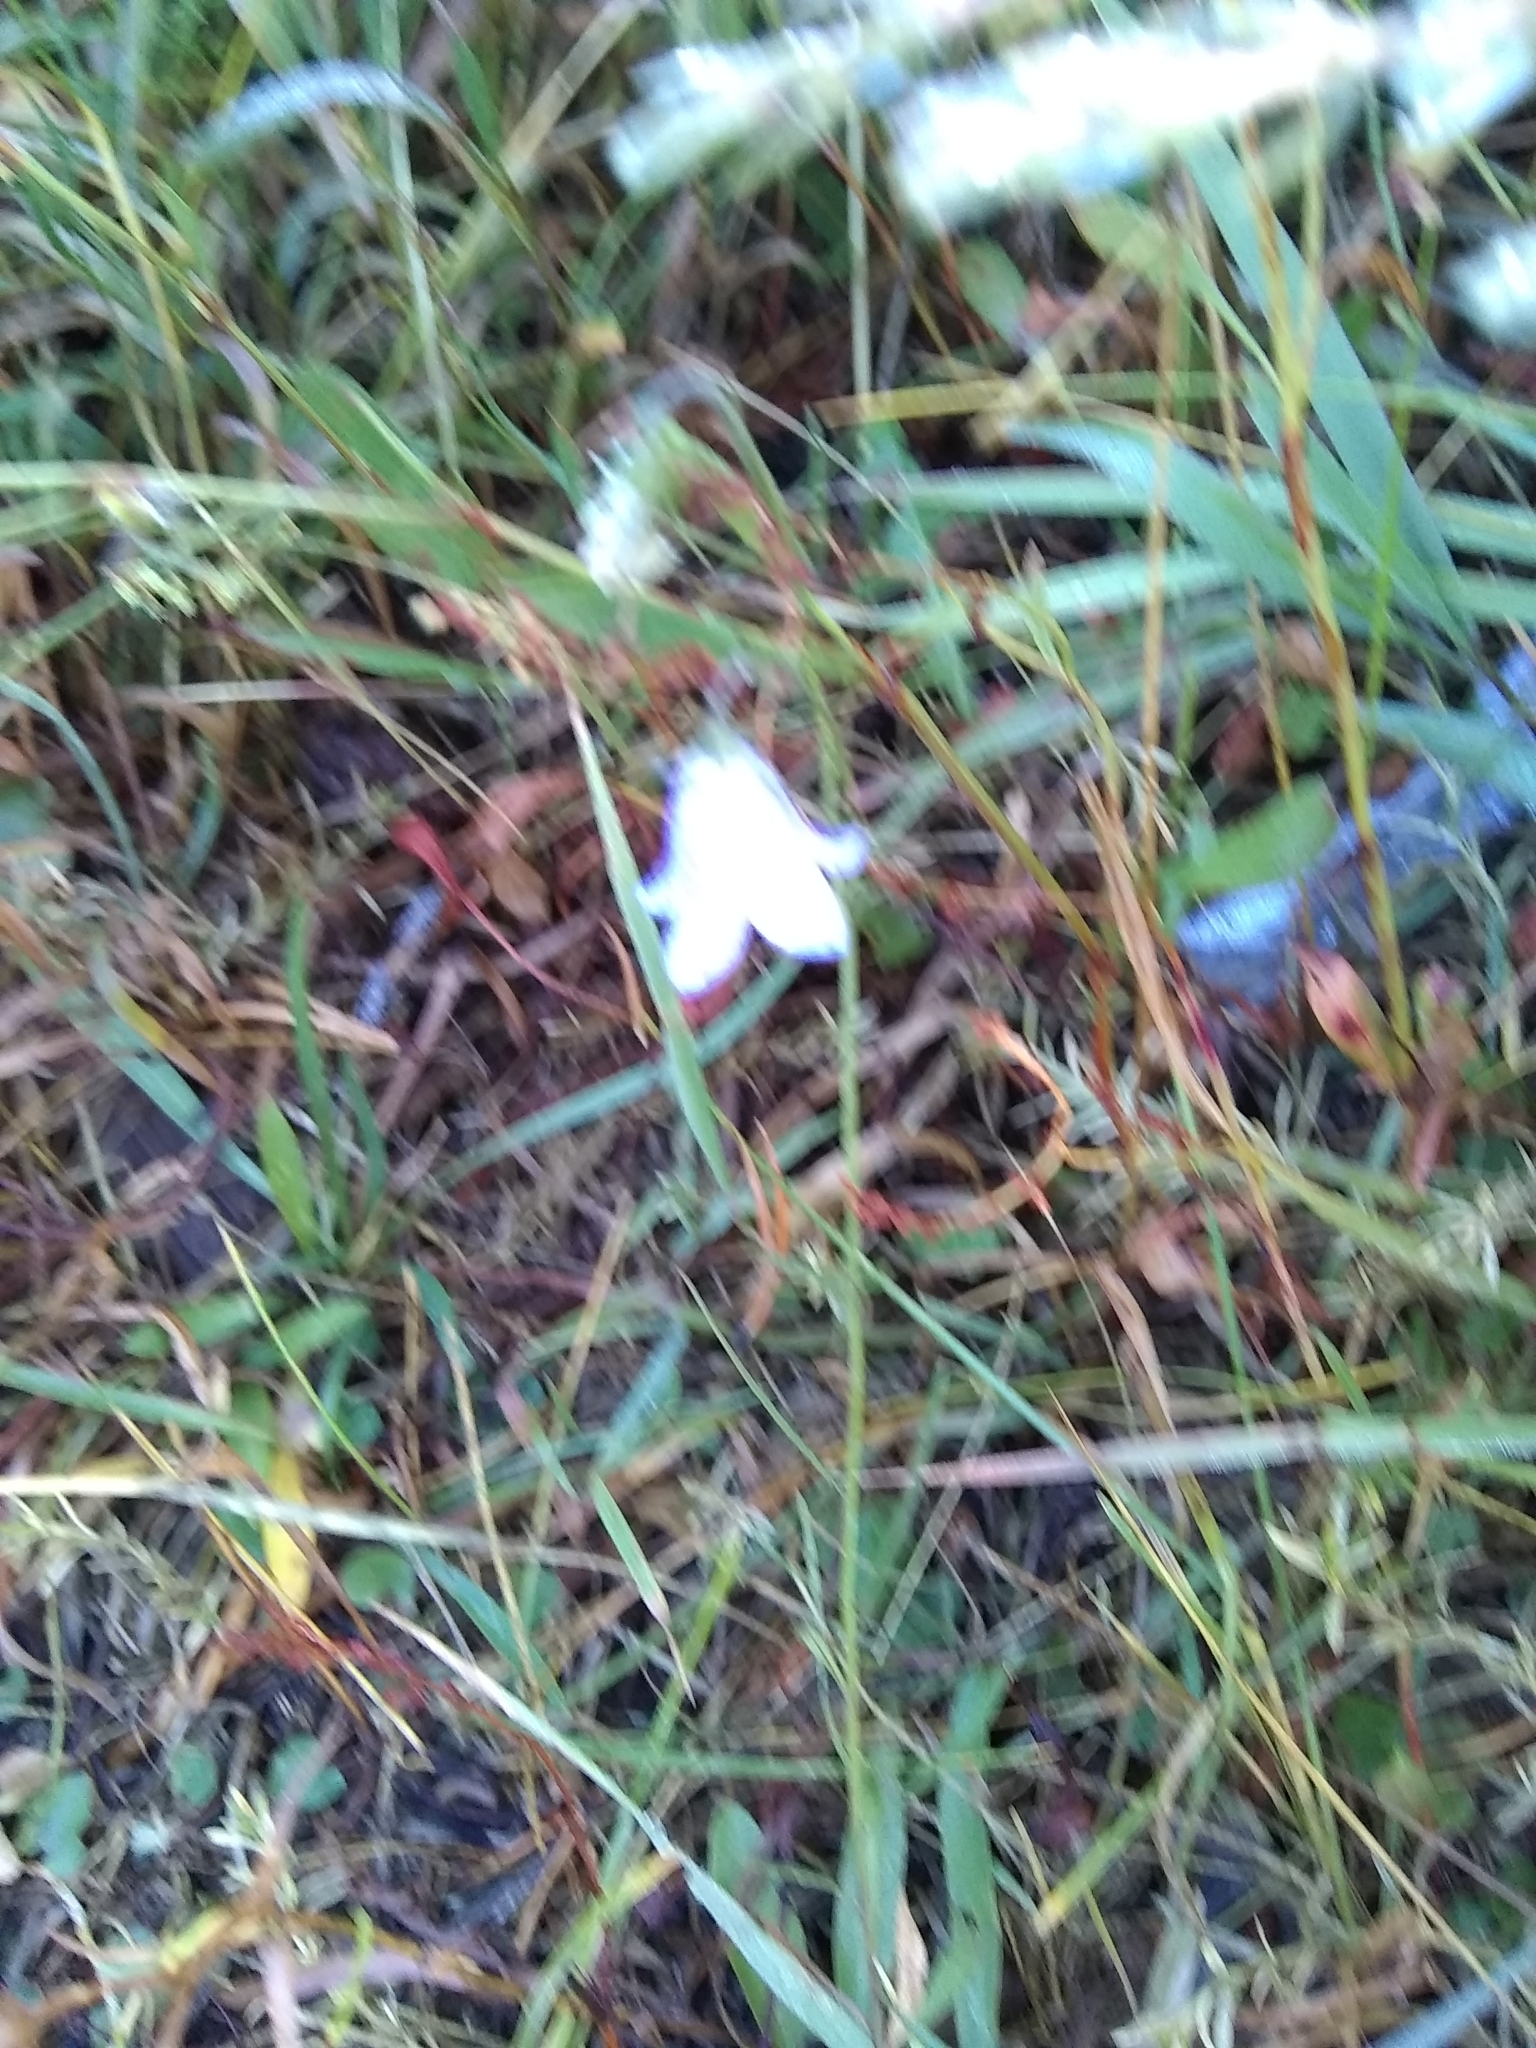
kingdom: Plantae
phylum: Tracheophyta
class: Magnoliopsida
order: Asterales
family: Campanulaceae
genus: Campanula
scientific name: Campanula petiolata
